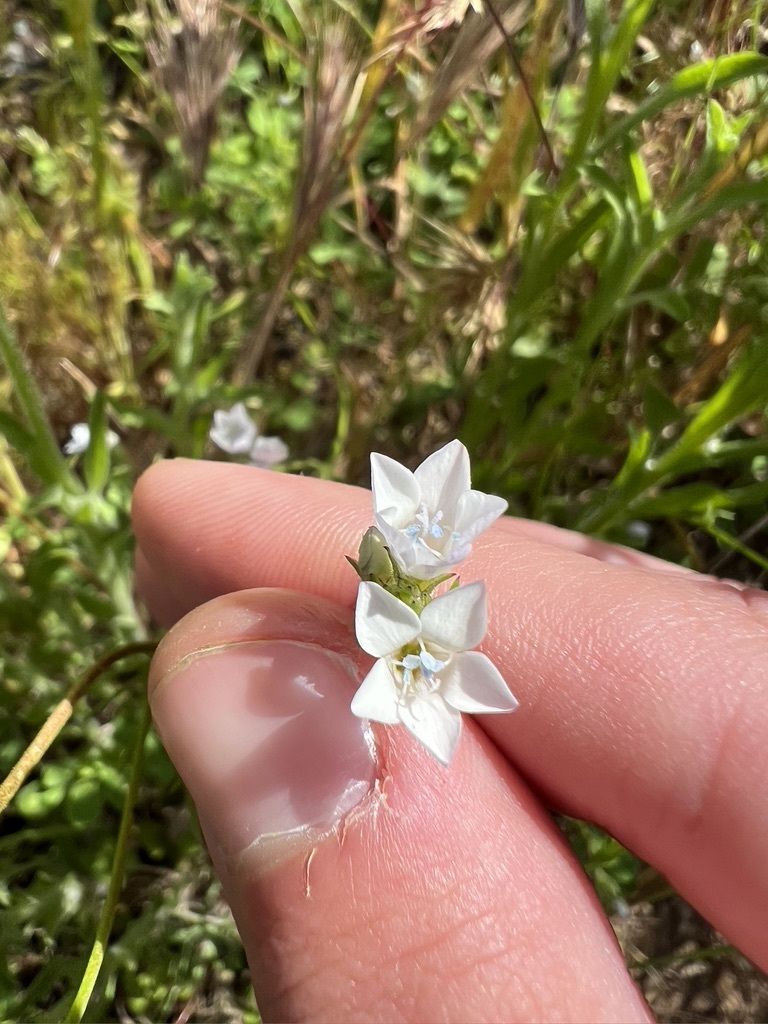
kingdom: Plantae
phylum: Tracheophyta
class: Magnoliopsida
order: Ericales
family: Polemoniaceae
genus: Gilia
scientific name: Gilia angelensis
